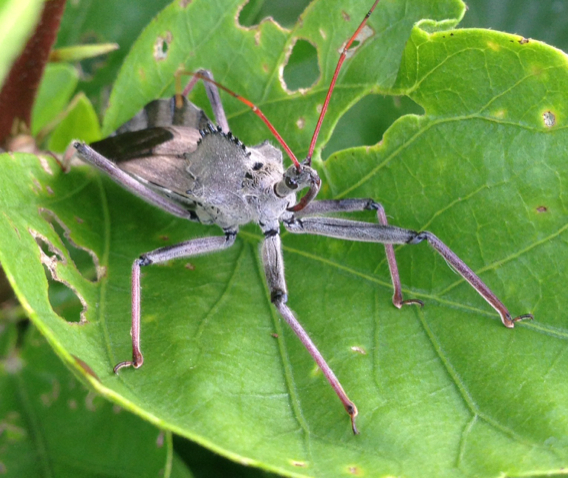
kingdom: Animalia
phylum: Arthropoda
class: Insecta
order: Hemiptera
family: Reduviidae
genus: Arilus
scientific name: Arilus cristatus
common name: North american wheel bug
